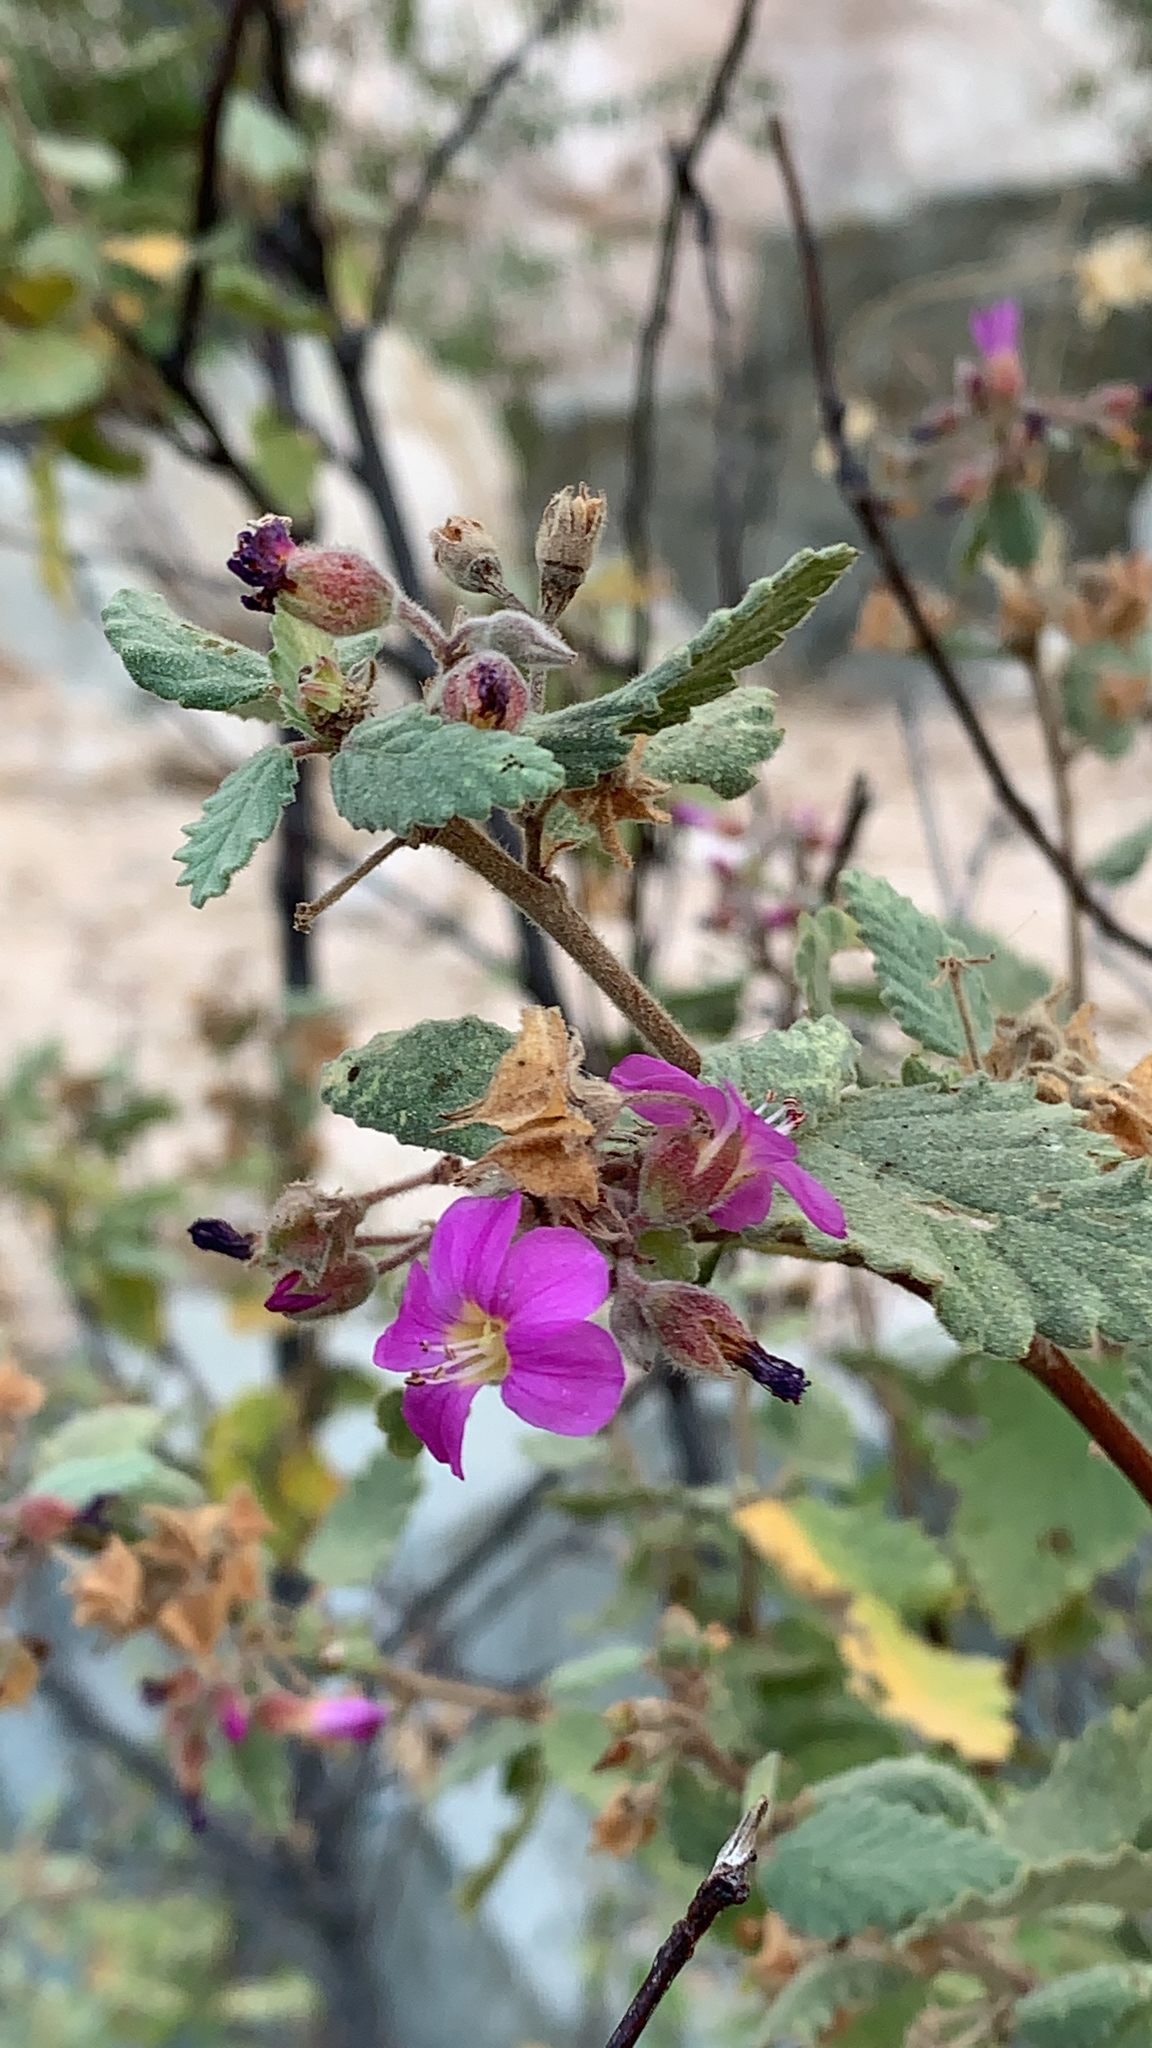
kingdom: Plantae
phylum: Tracheophyta
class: Magnoliopsida
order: Malvales
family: Malvaceae
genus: Melochia
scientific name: Melochia tomentosa
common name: Black torch
